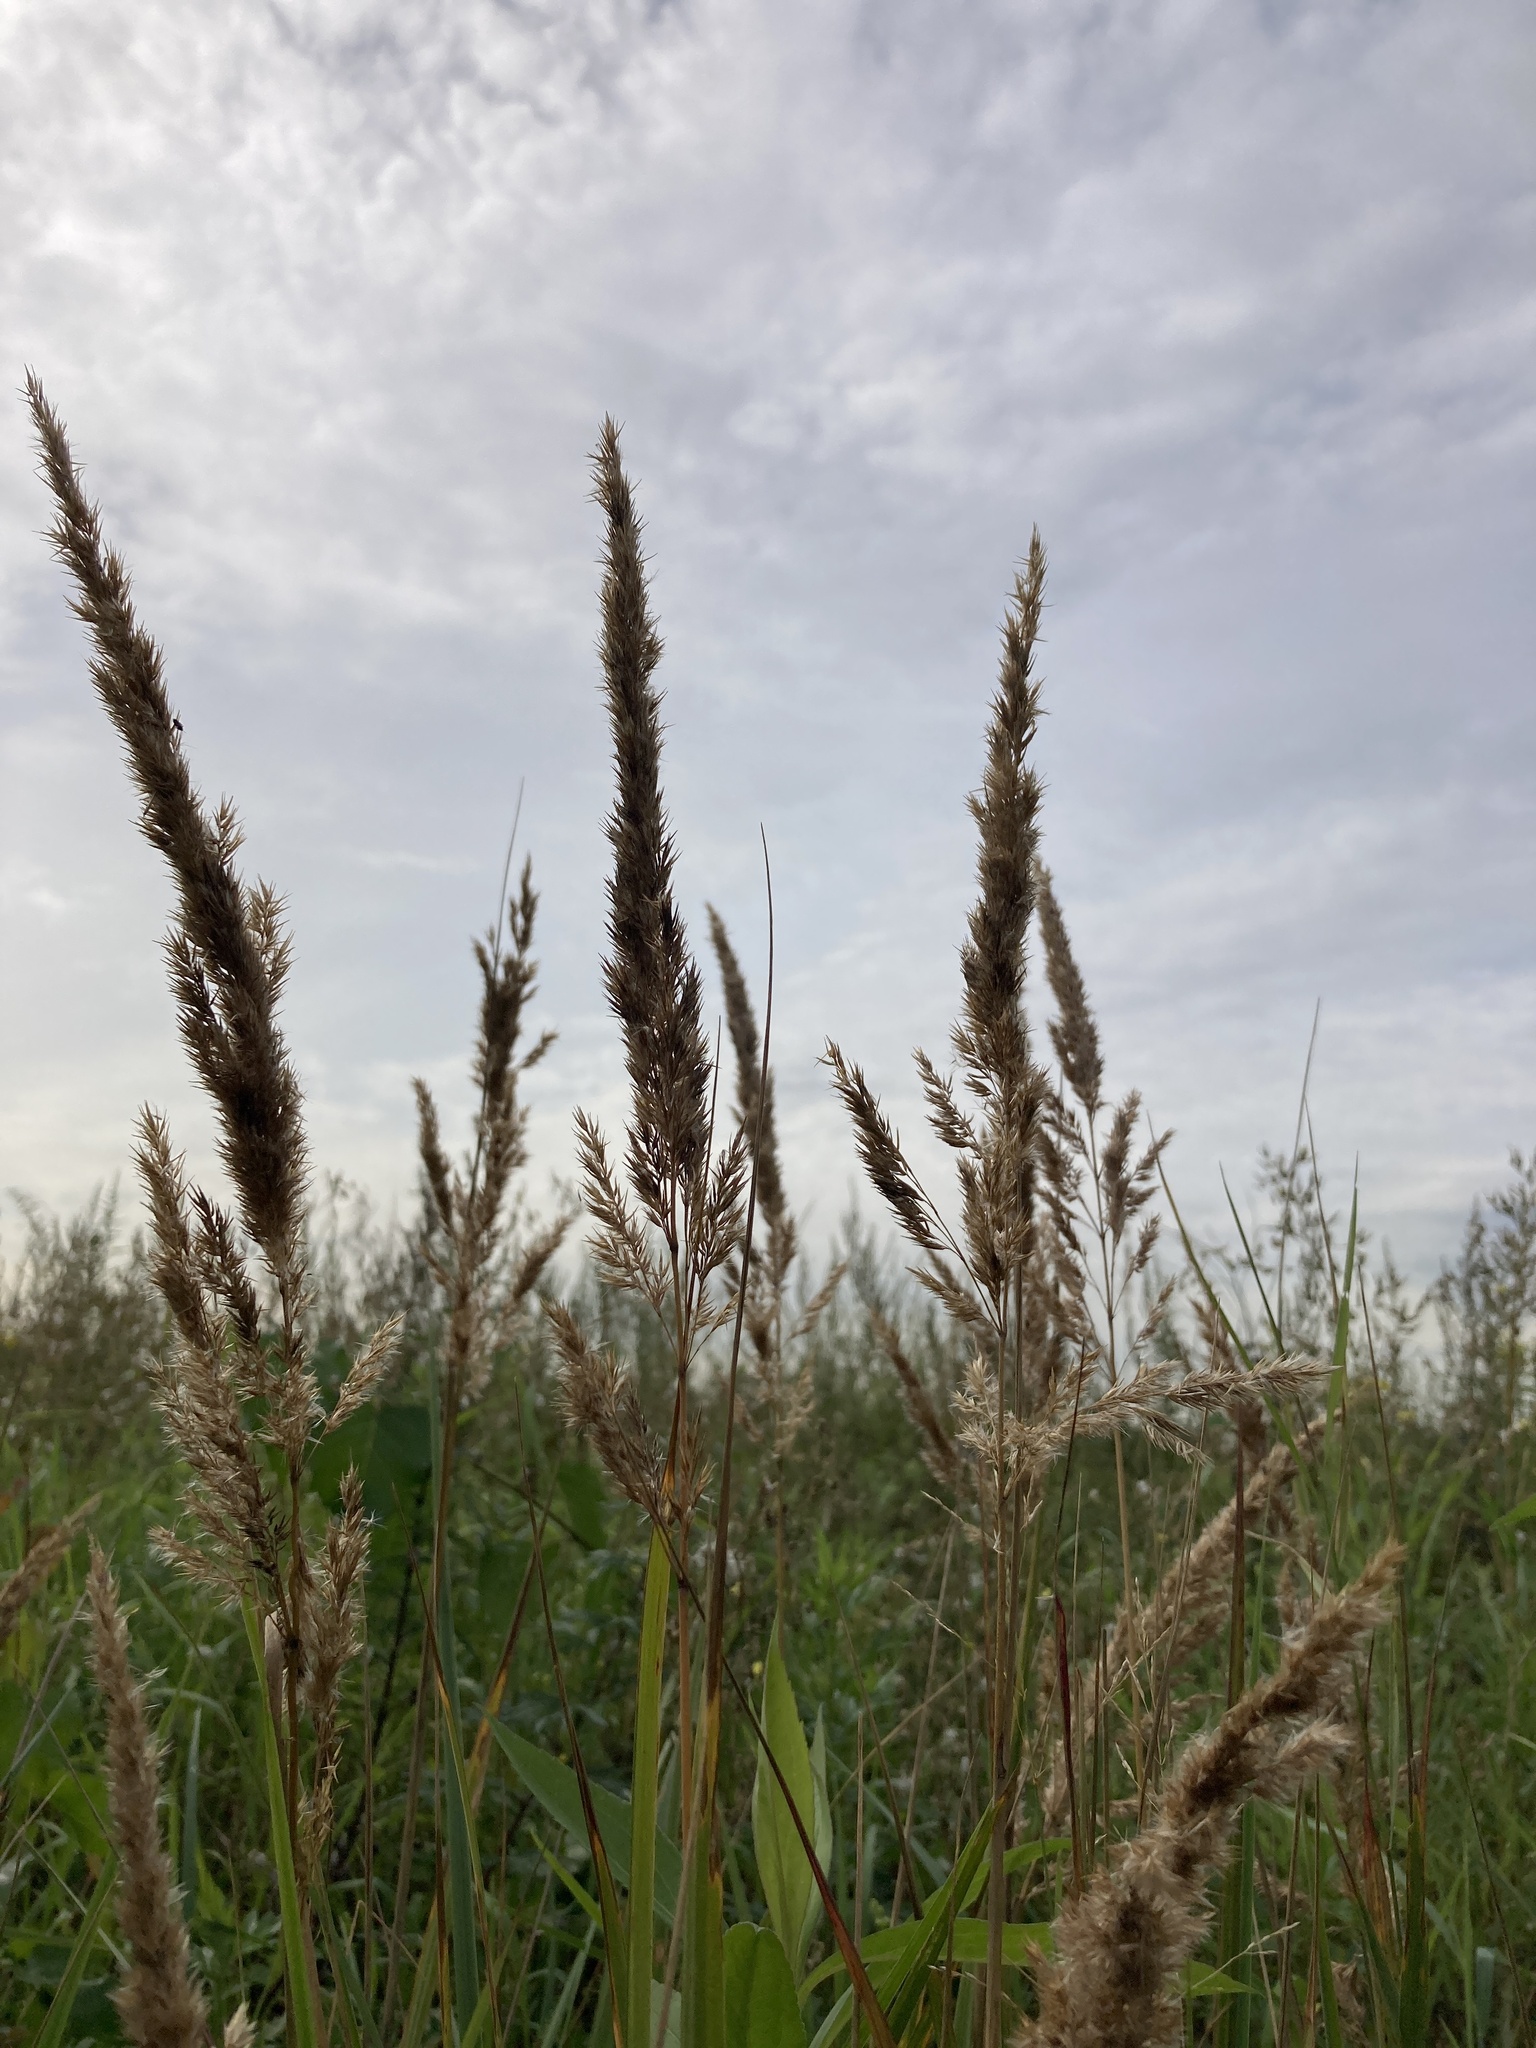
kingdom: Plantae
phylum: Tracheophyta
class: Liliopsida
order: Poales
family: Poaceae
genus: Calamagrostis
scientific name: Calamagrostis epigejos
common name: Wood small-reed
